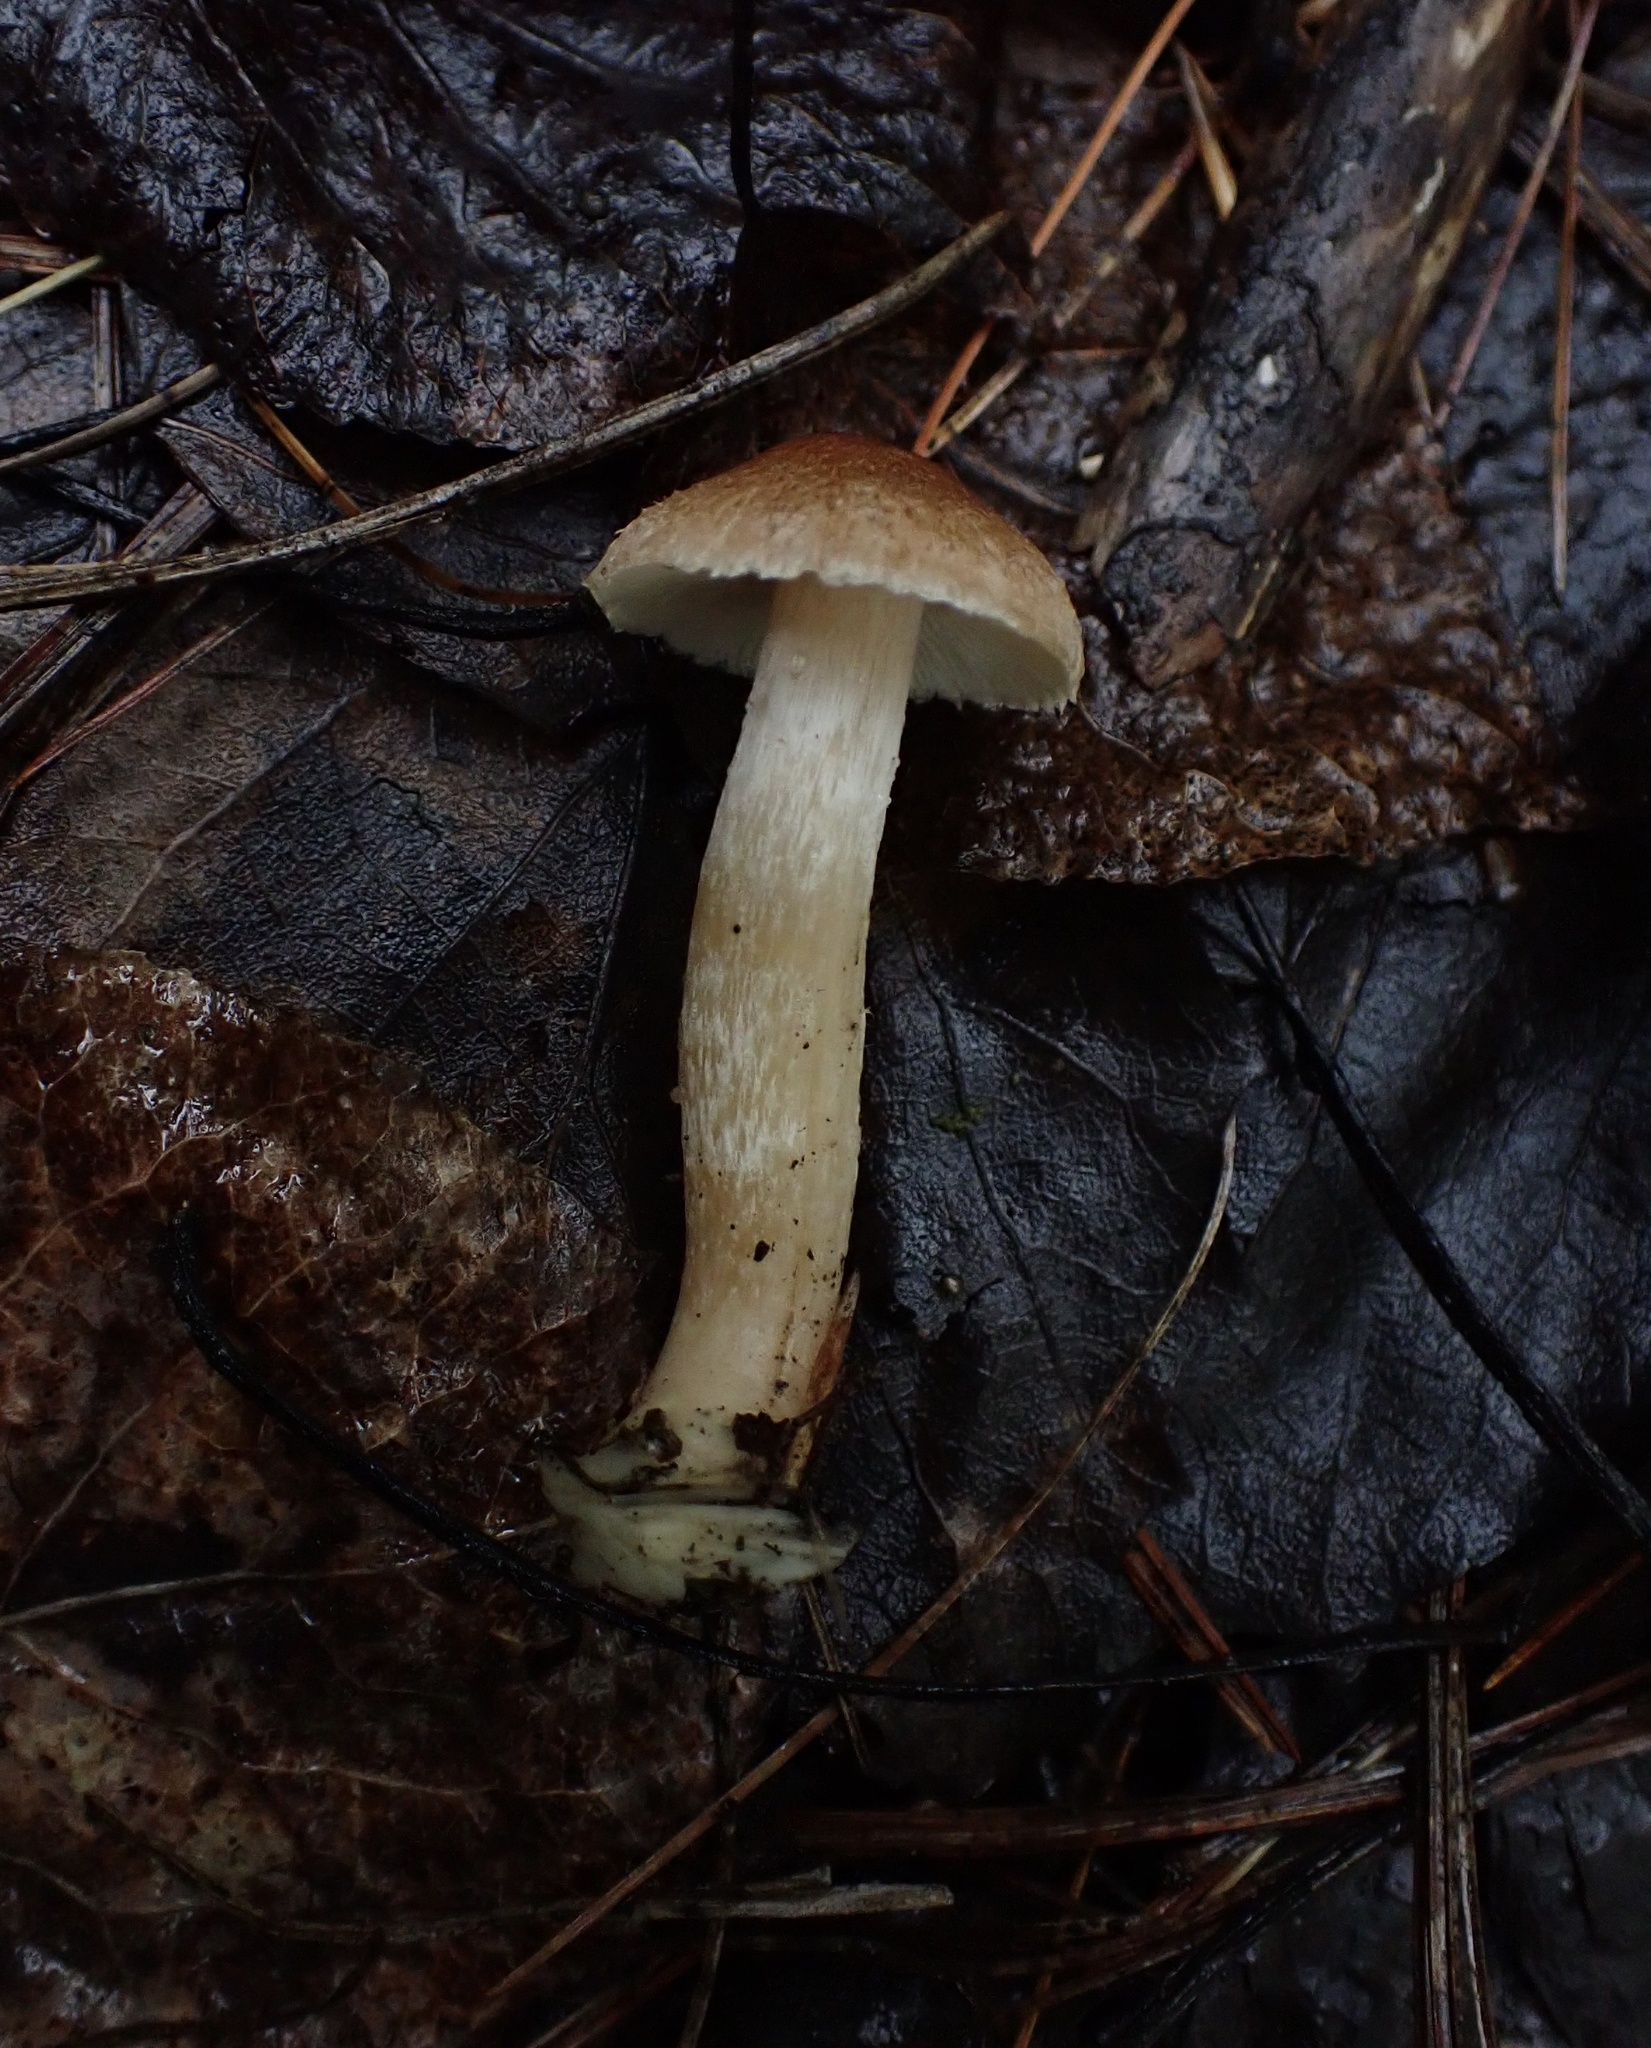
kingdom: Fungi
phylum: Basidiomycota
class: Agaricomycetes
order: Agaricales
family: Tricholomataceae
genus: Tricholoma
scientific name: Tricholoma vaccinum
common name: Scaly knight
